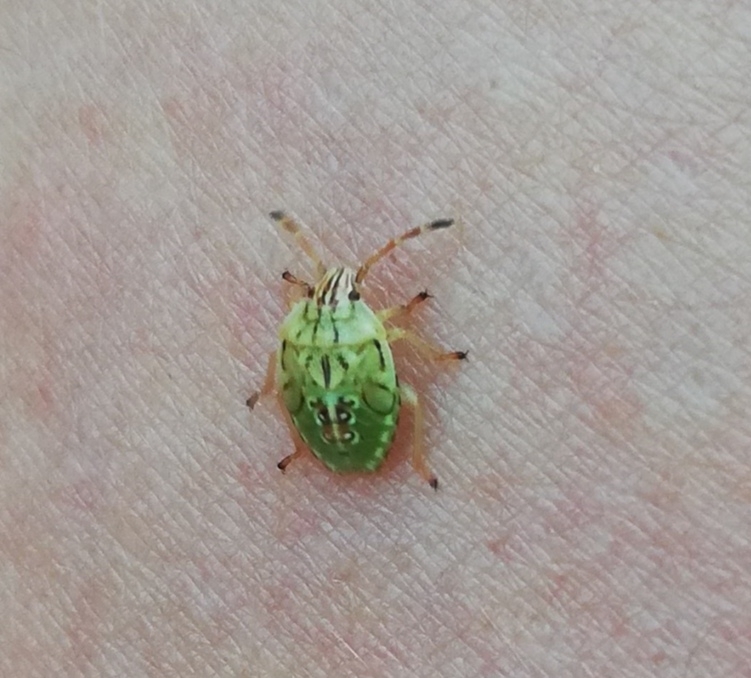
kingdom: Animalia
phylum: Arthropoda
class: Insecta
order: Hemiptera
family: Acanthosomatidae
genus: Elasmucha
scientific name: Elasmucha grisea
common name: Parent bug
